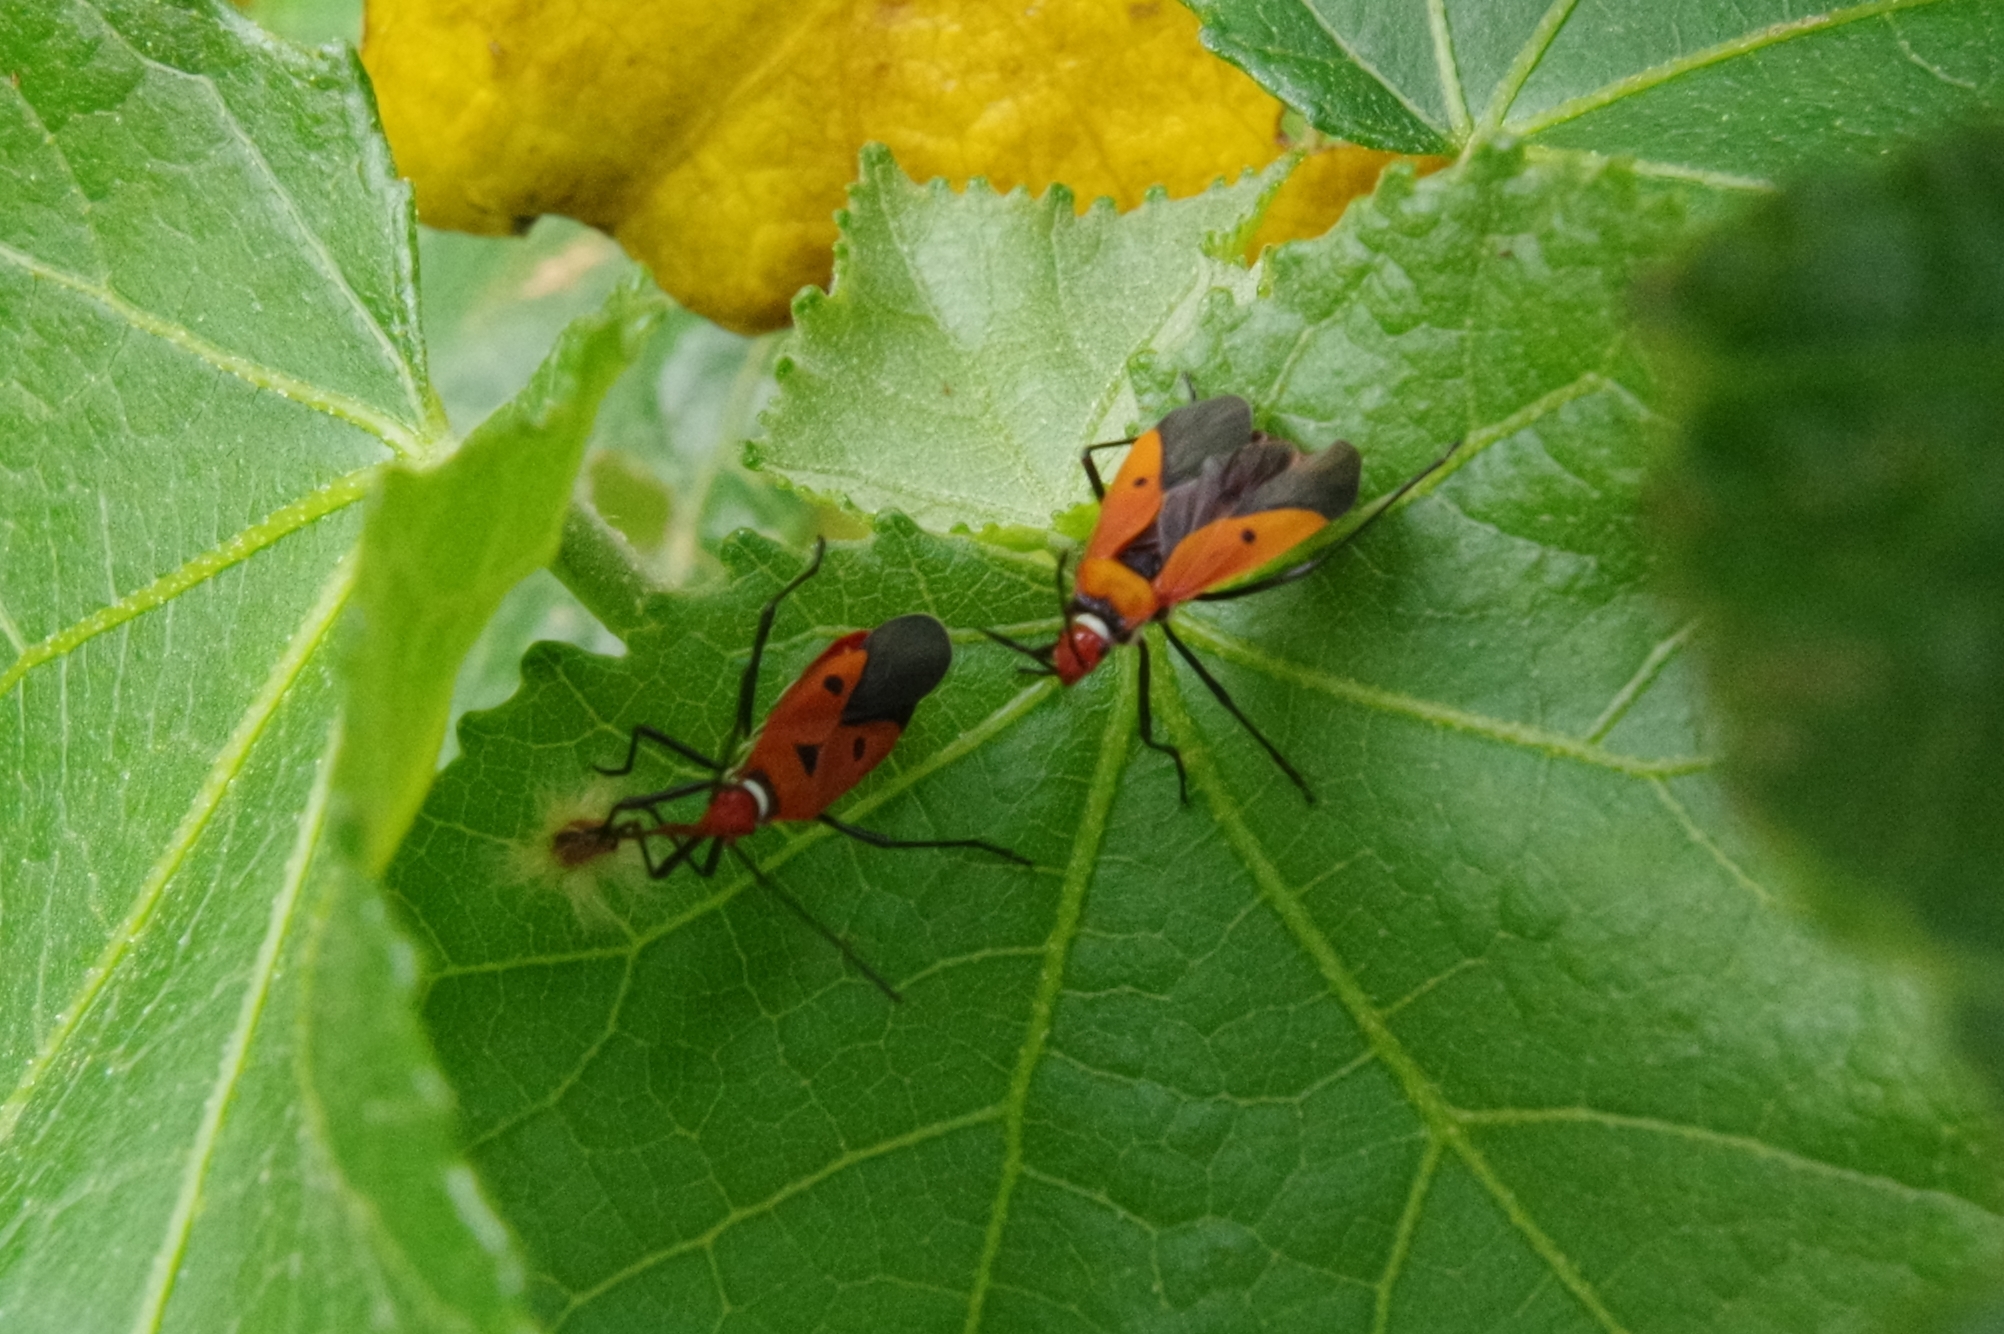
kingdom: Animalia
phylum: Arthropoda
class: Insecta
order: Hemiptera
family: Pyrrhocoridae
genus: Dysdercus
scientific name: Dysdercus cingulatus
